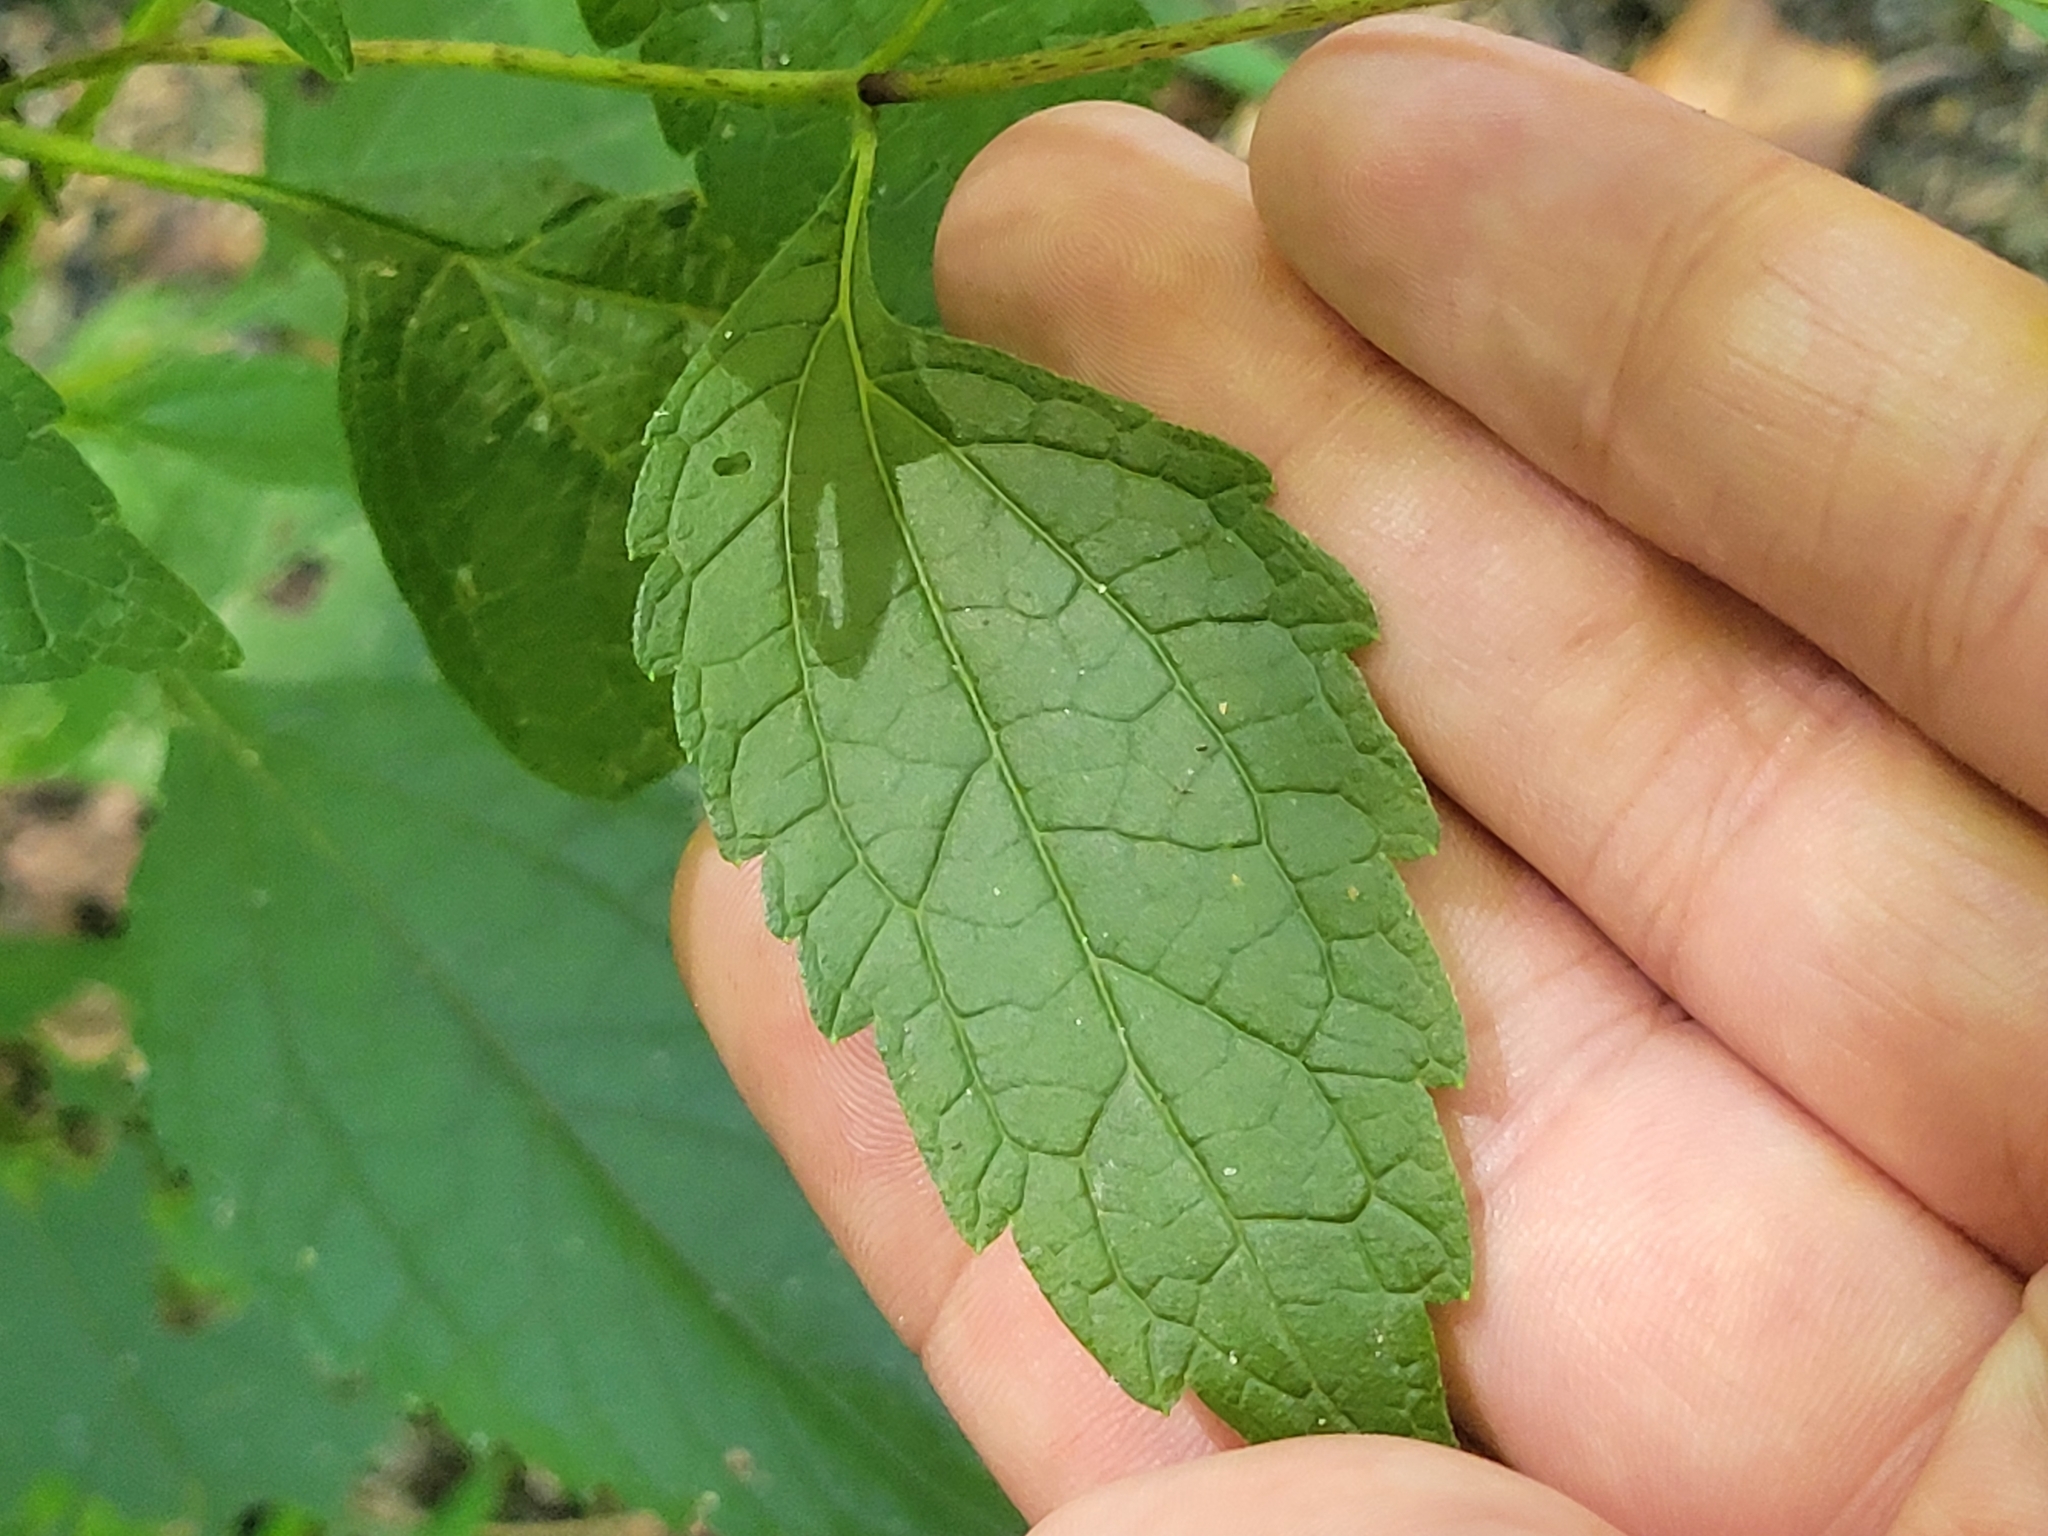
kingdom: Plantae
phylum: Tracheophyta
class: Magnoliopsida
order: Asterales
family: Asteraceae
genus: Eutrochium
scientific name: Eutrochium dubium
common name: Coastal plain joe pye weed
